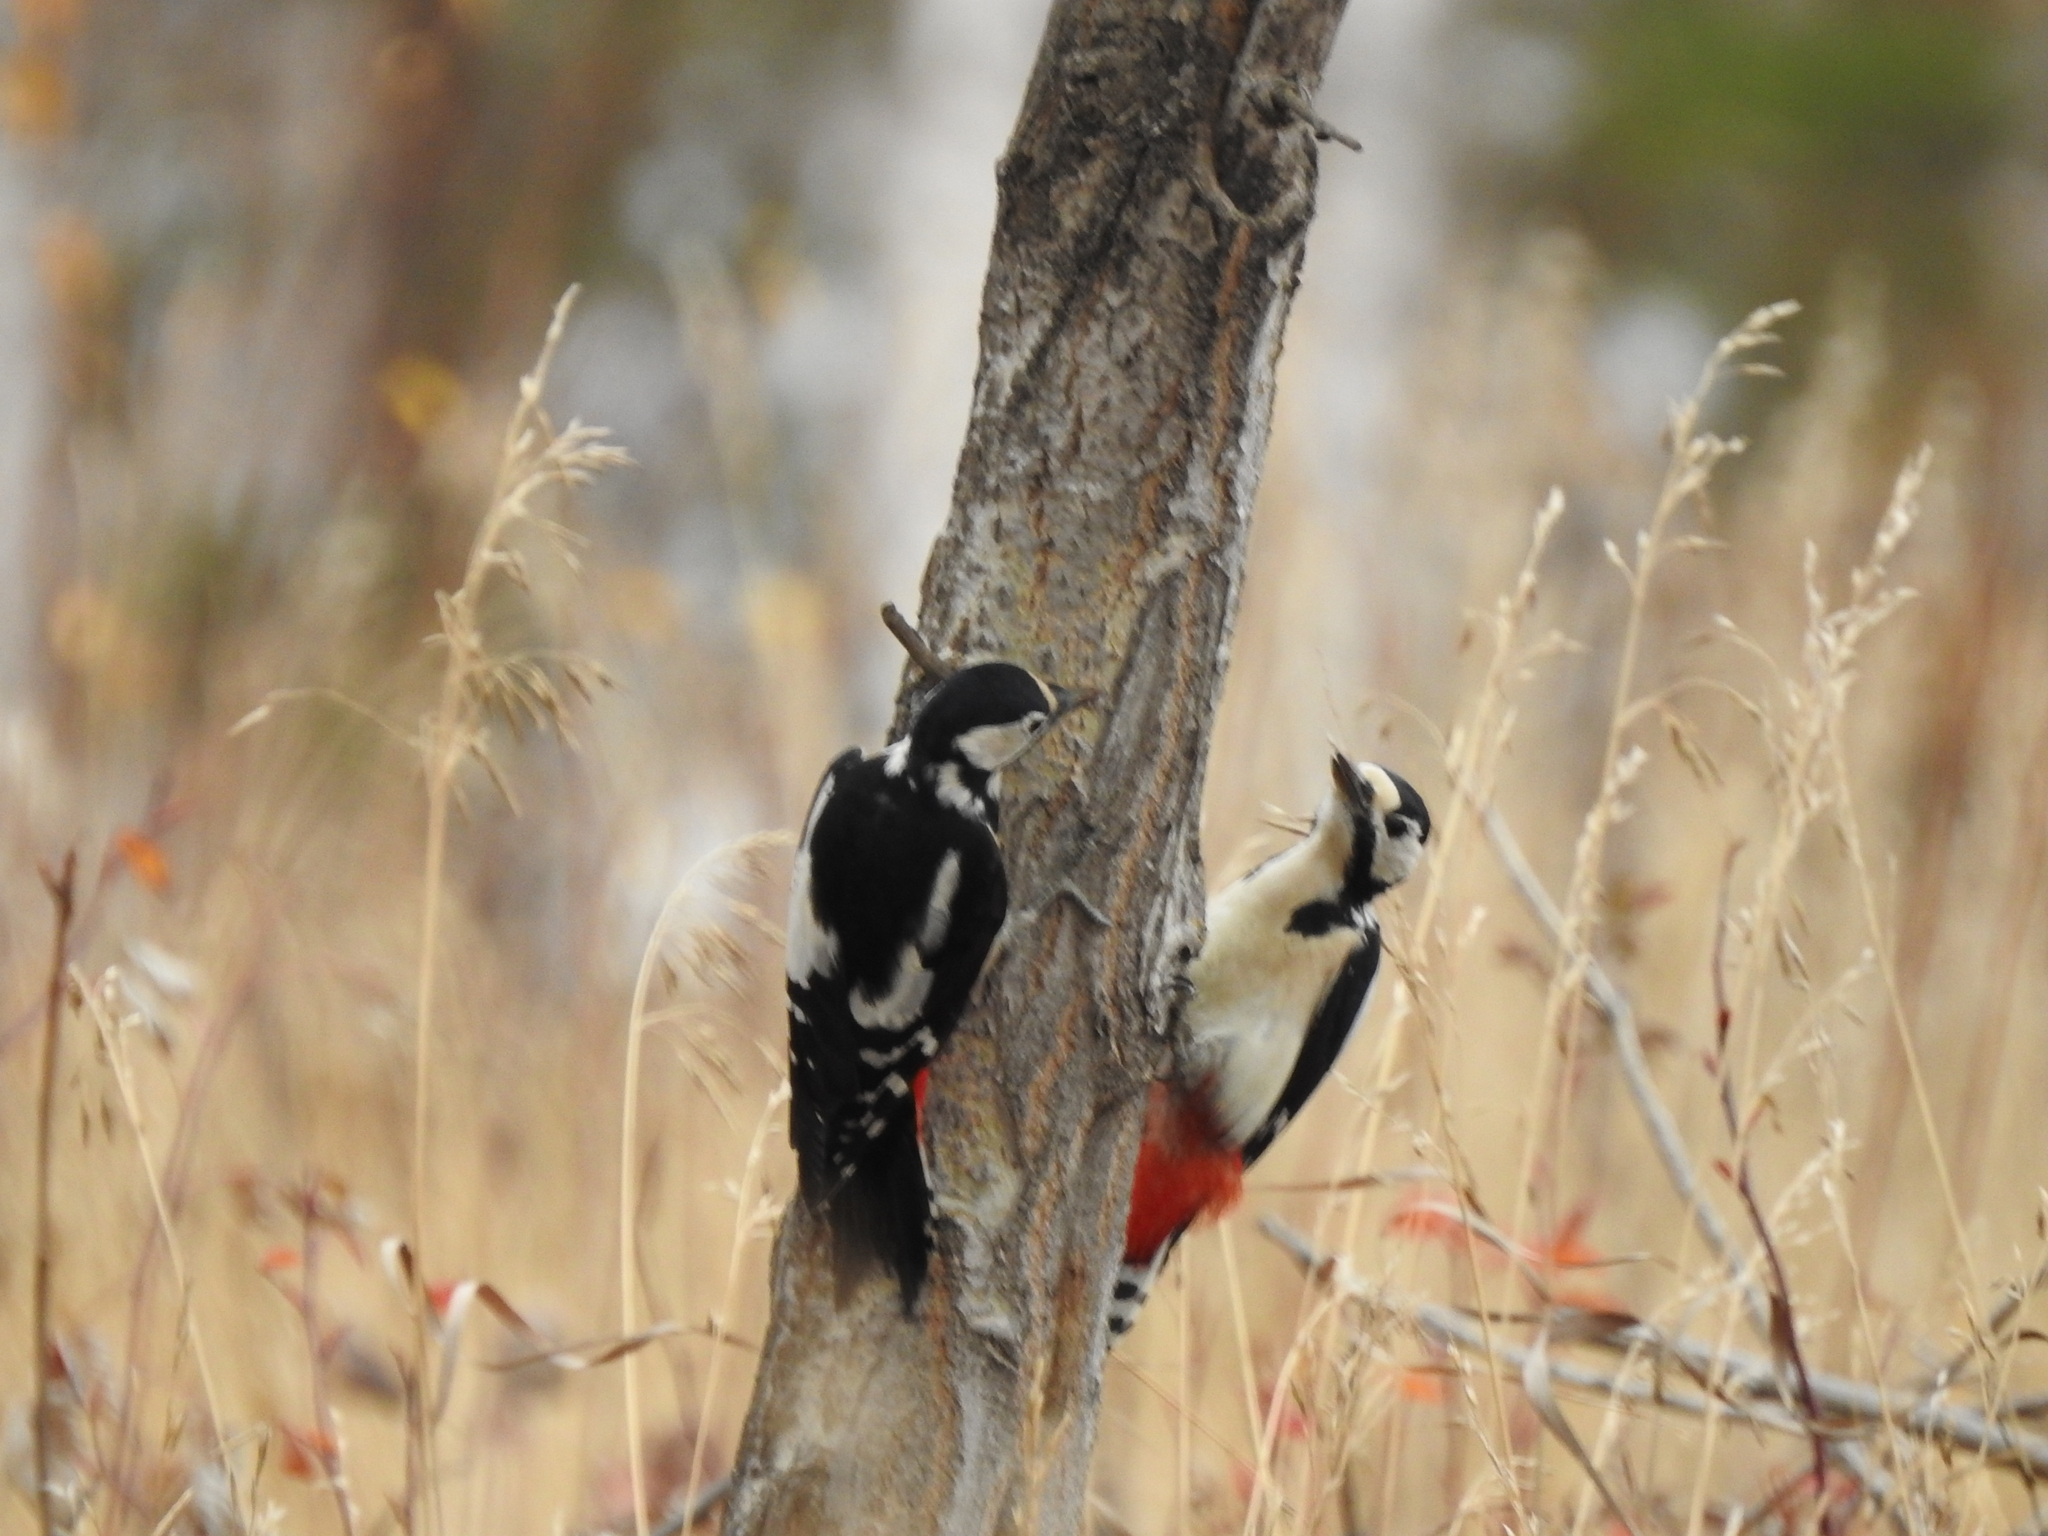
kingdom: Animalia
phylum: Chordata
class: Aves
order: Piciformes
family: Picidae
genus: Dendrocopos
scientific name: Dendrocopos major
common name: Great spotted woodpecker
